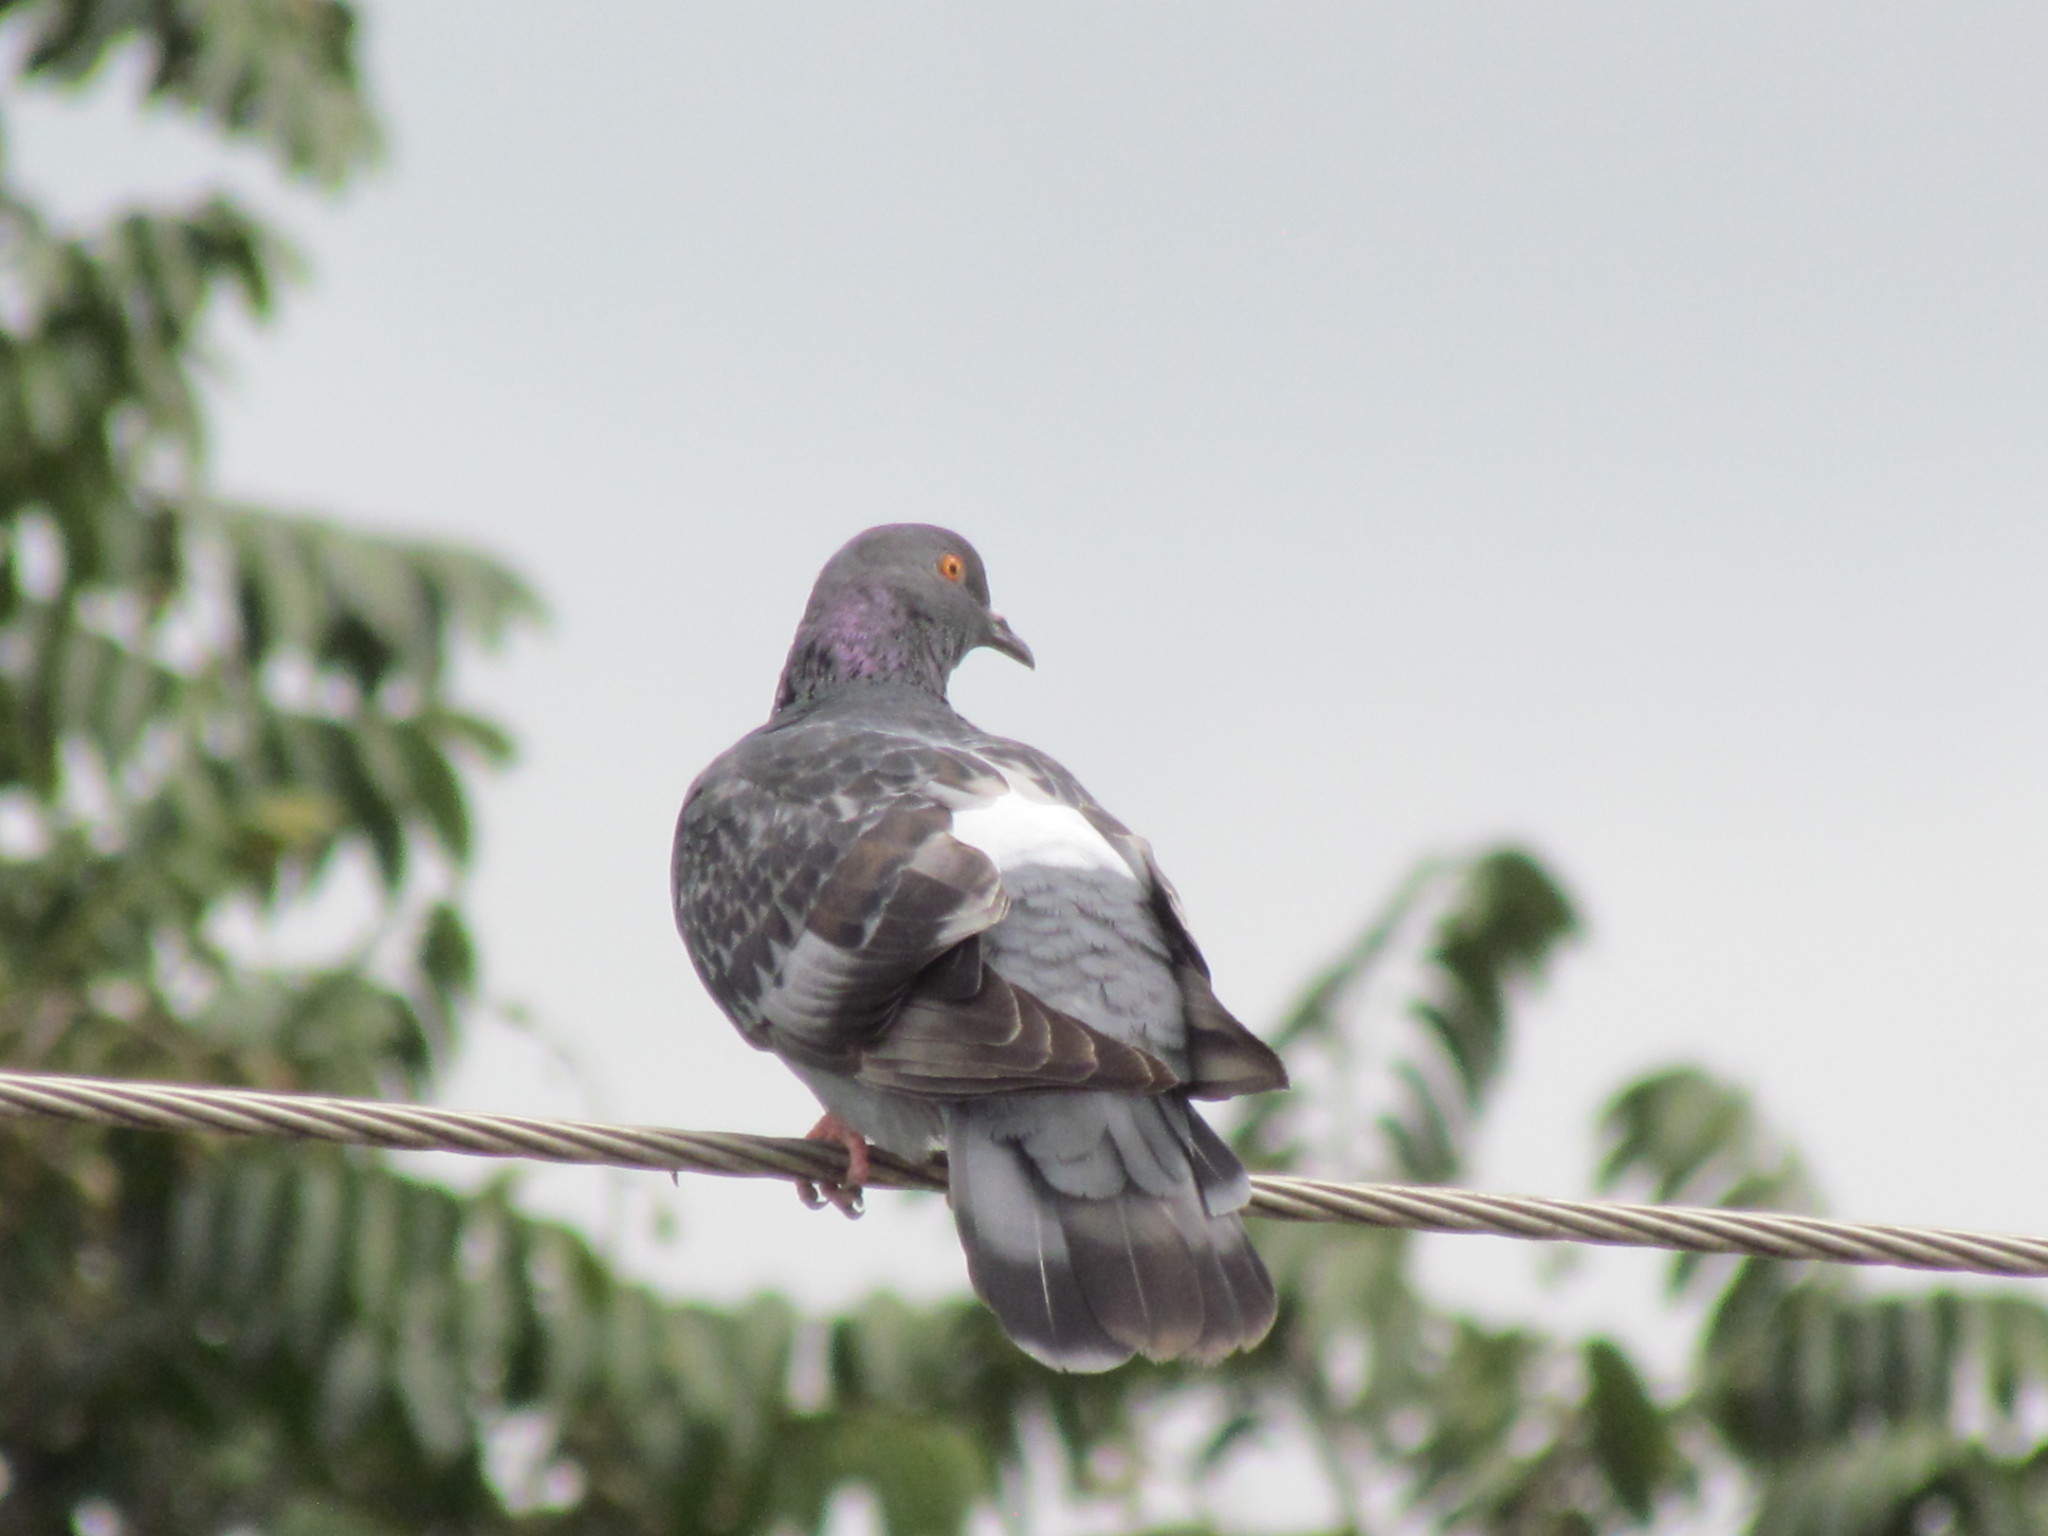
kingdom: Animalia
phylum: Chordata
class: Aves
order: Columbiformes
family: Columbidae
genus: Columba
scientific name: Columba livia
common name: Rock pigeon
